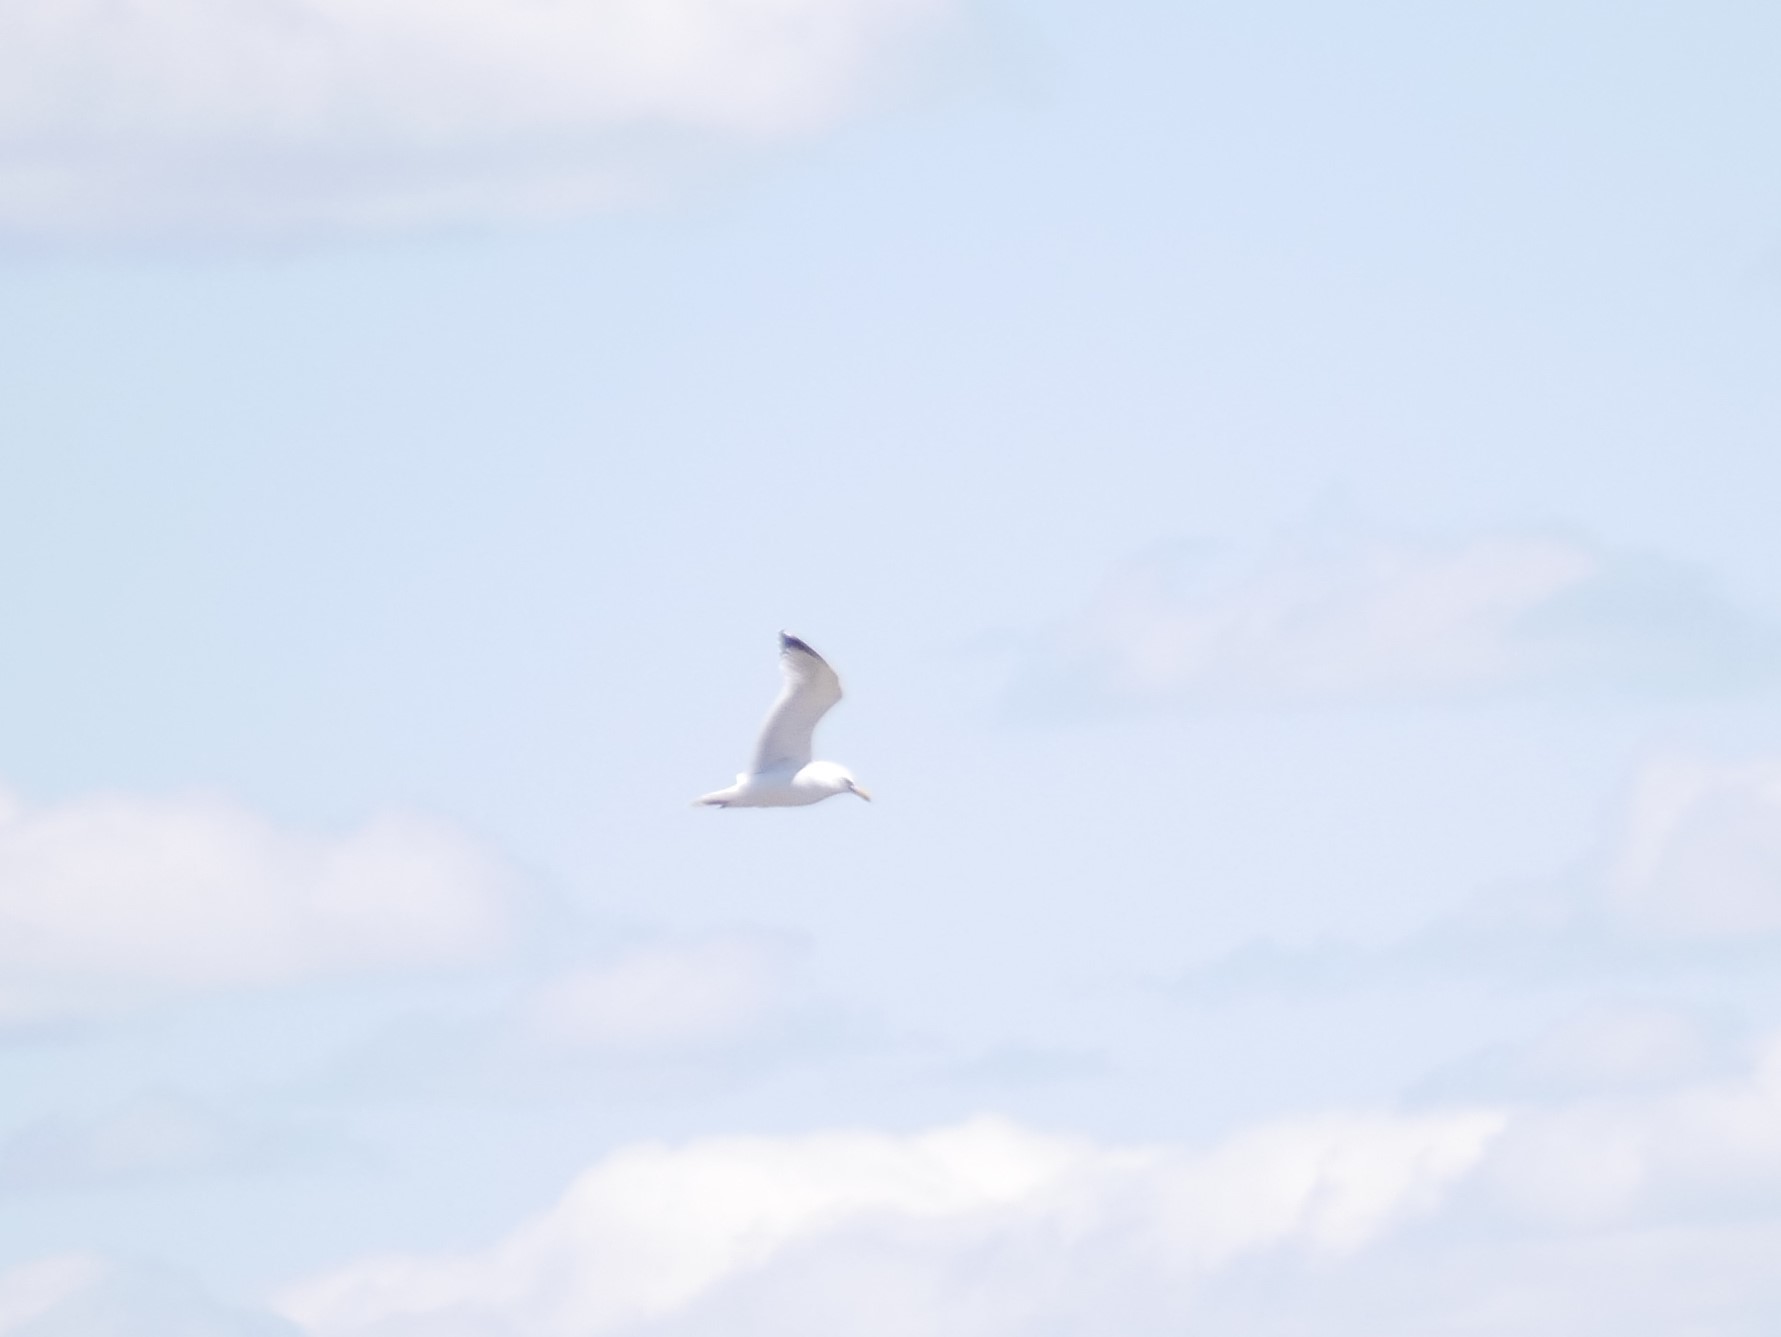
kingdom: Animalia
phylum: Chordata
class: Aves
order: Charadriiformes
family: Laridae
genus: Larus
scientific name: Larus argentatus
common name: Herring gull
